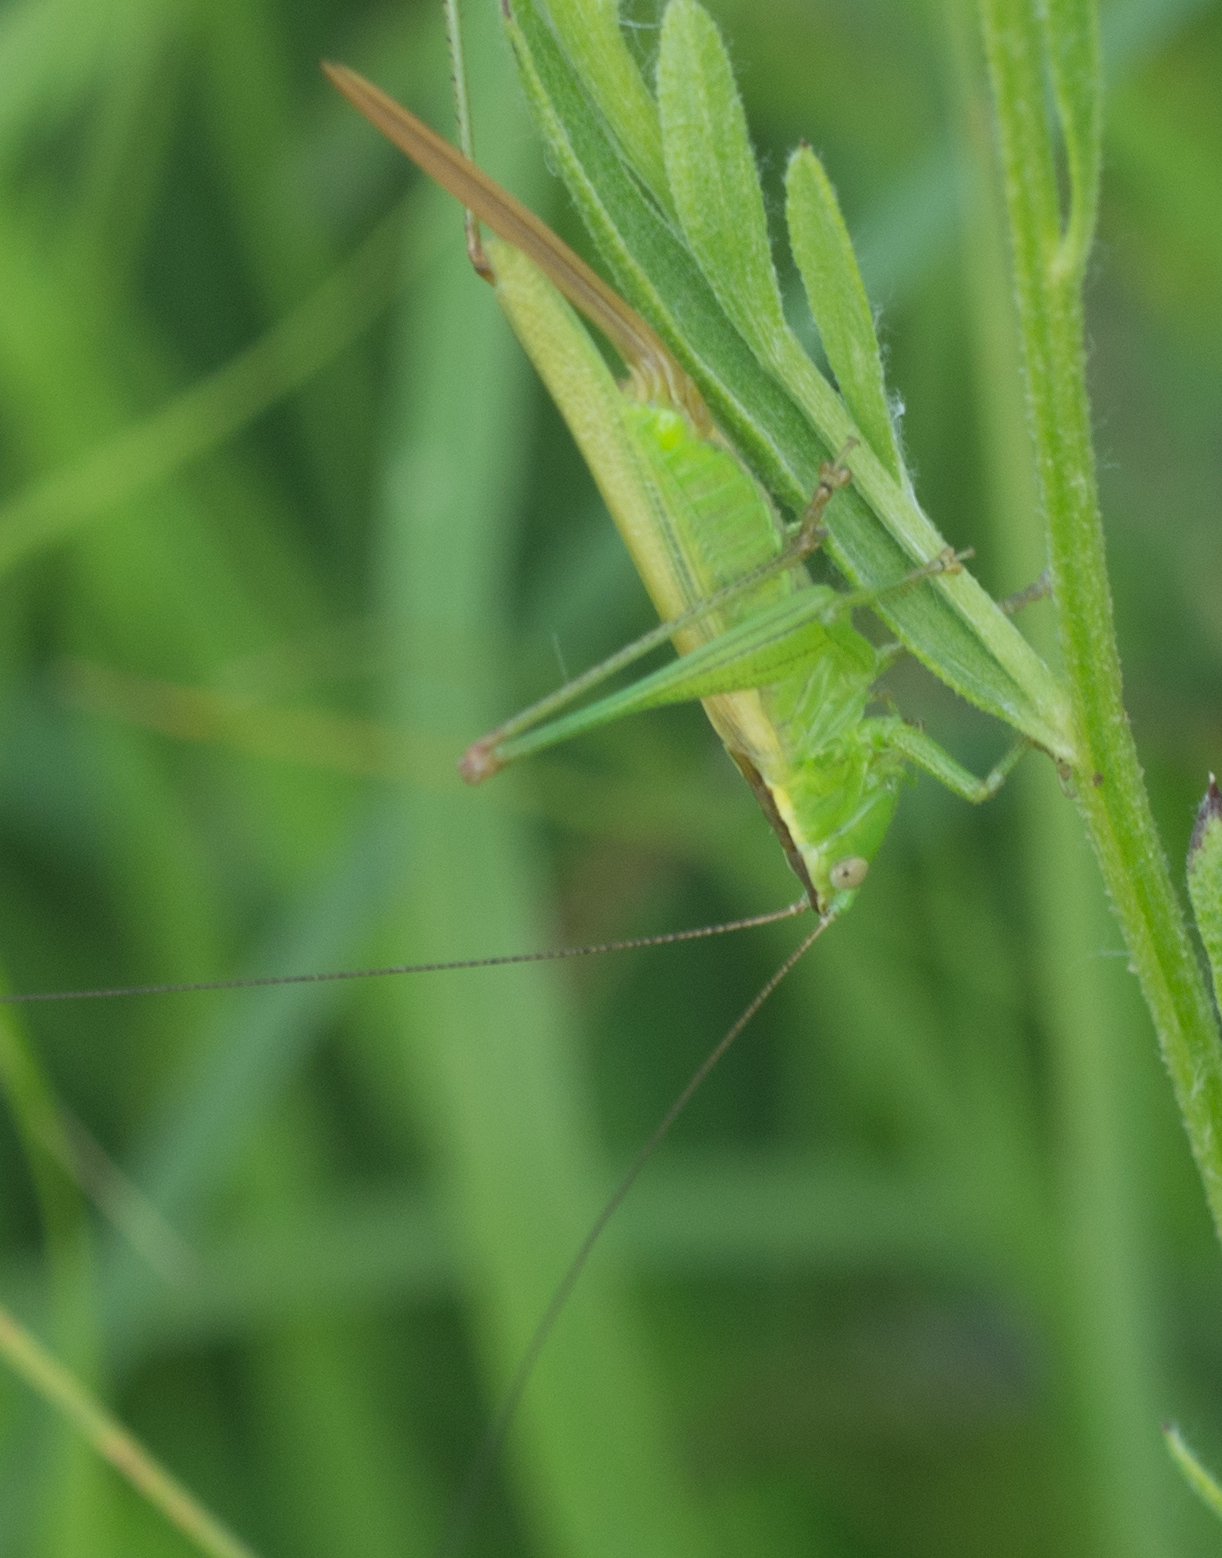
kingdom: Animalia
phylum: Arthropoda
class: Insecta
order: Orthoptera
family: Tettigoniidae
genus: Conocephalus
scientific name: Conocephalus fuscus
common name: Long-winged conehead
